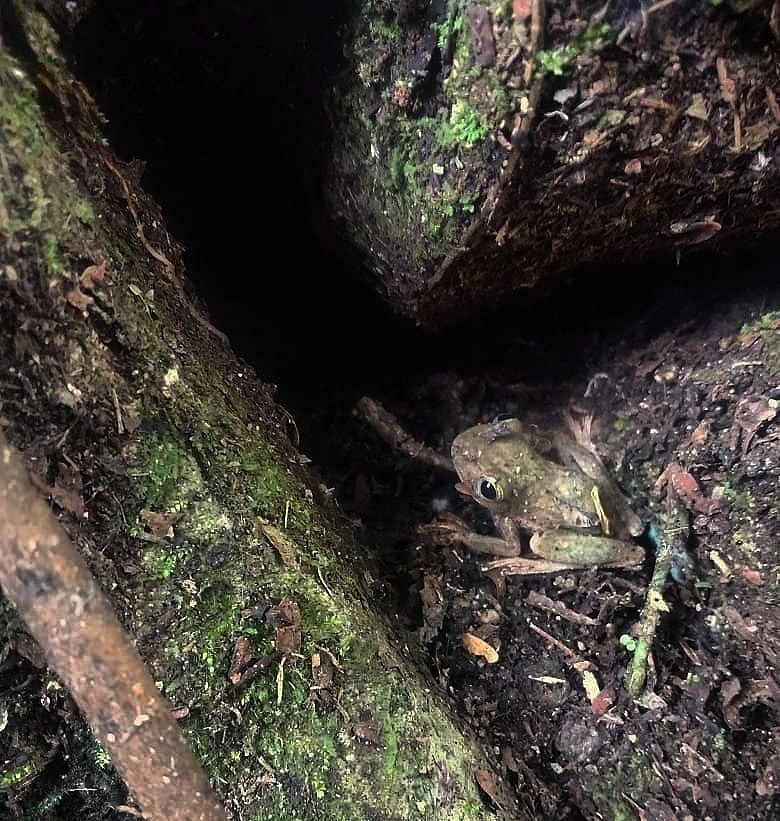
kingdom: Animalia
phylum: Chordata
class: Amphibia
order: Anura
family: Hylidae
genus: Rheohyla
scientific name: Rheohyla miotympanum
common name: Small-eard hyla
